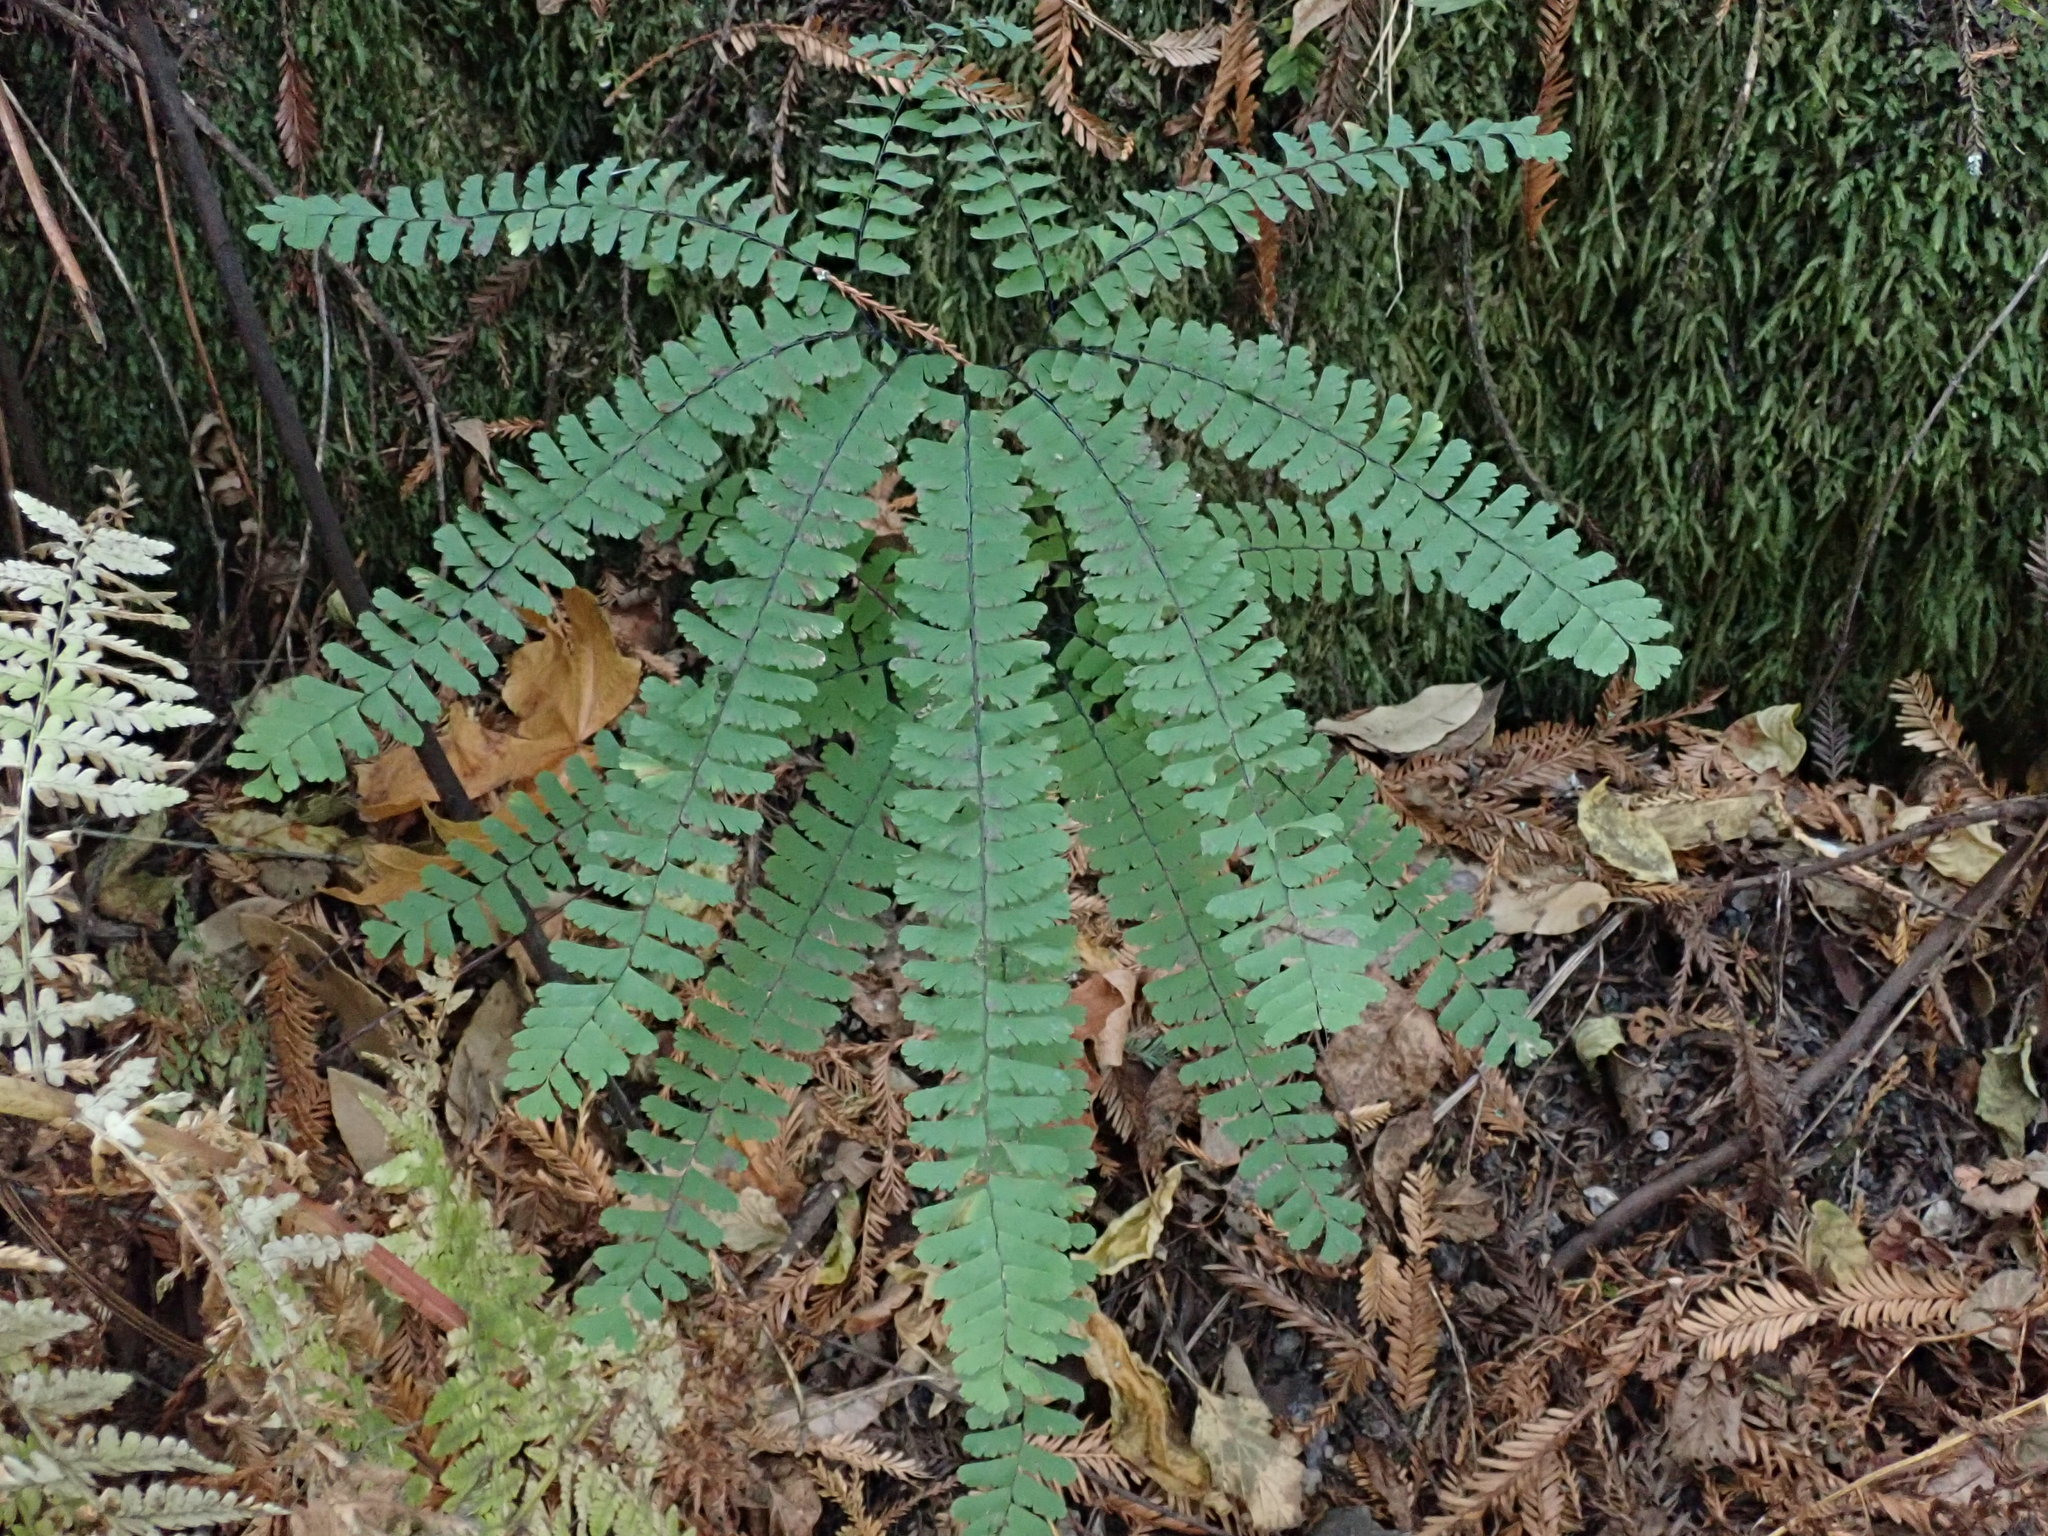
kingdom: Plantae
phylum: Tracheophyta
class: Polypodiopsida
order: Polypodiales
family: Pteridaceae
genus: Adiantum
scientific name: Adiantum aleuticum
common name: Aleutian maidenhair fern
